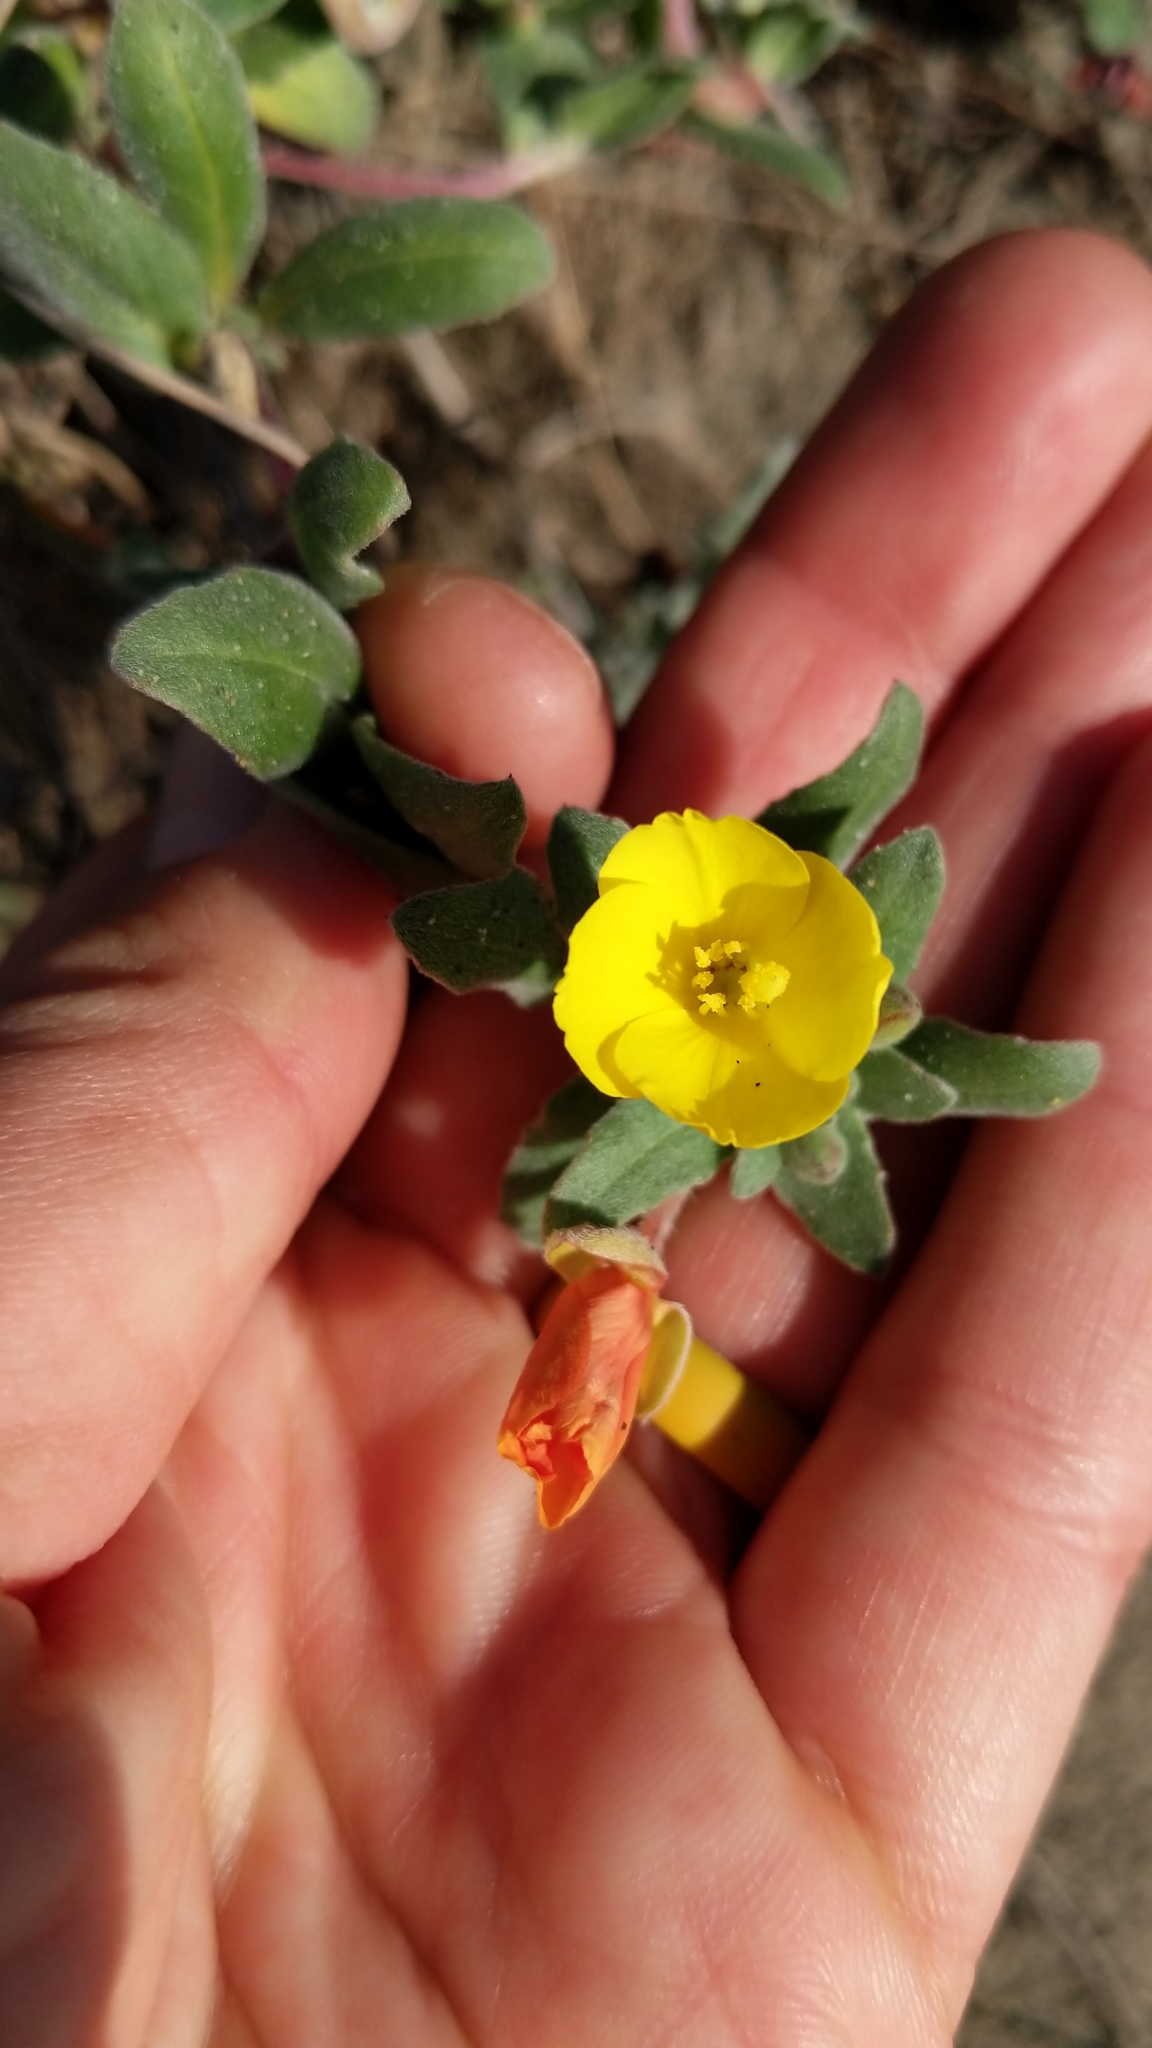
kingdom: Plantae
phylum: Tracheophyta
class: Magnoliopsida
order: Myrtales
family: Onagraceae
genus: Camissoniopsis
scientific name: Camissoniopsis cheiranthifolia
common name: Beach suncup
